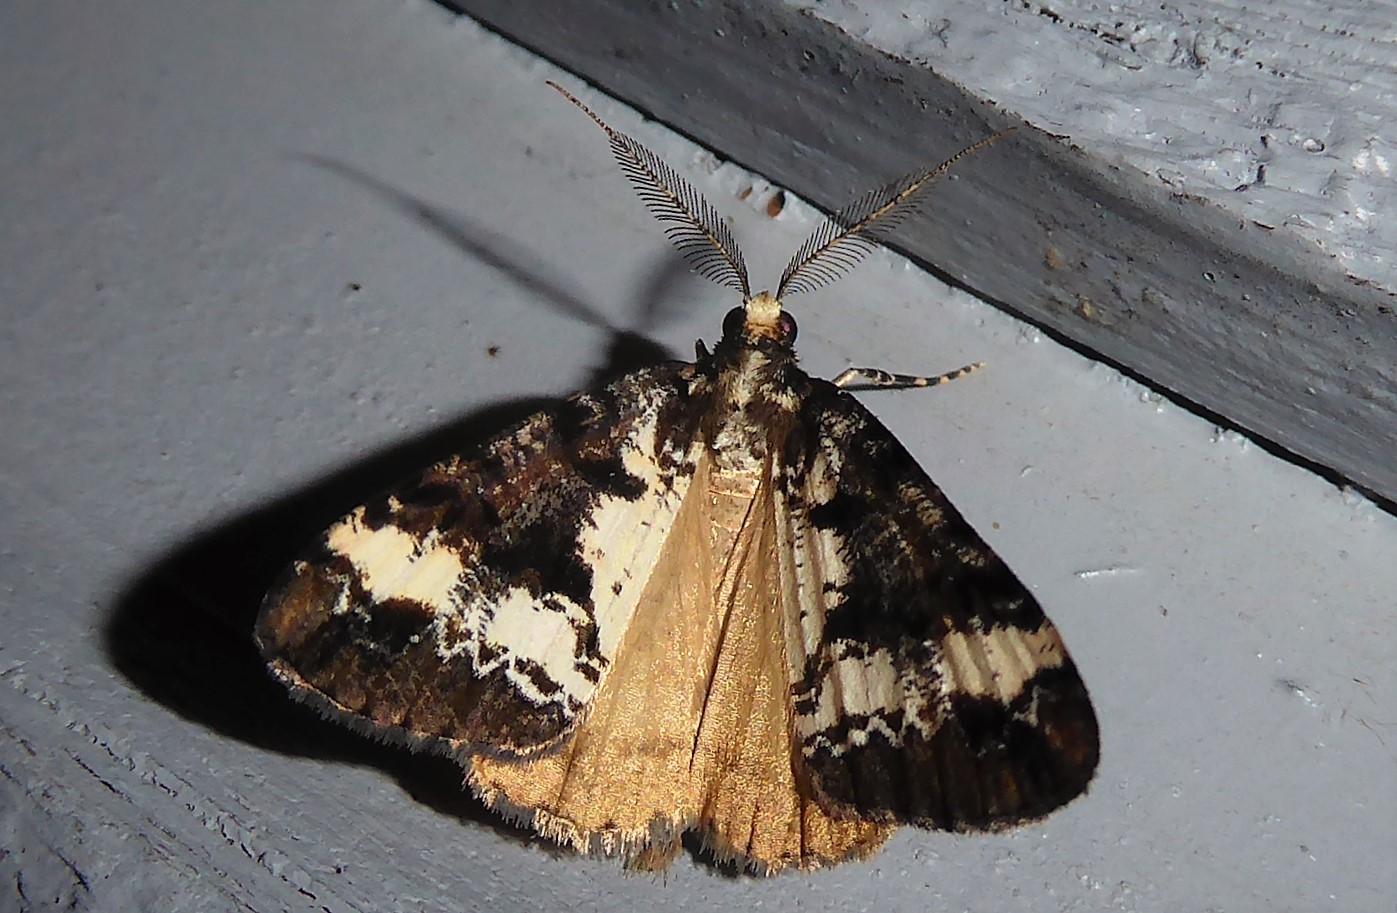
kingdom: Animalia
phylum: Arthropoda
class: Insecta
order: Lepidoptera
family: Geometridae
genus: Pseudocoremia
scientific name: Pseudocoremia leucelaea
